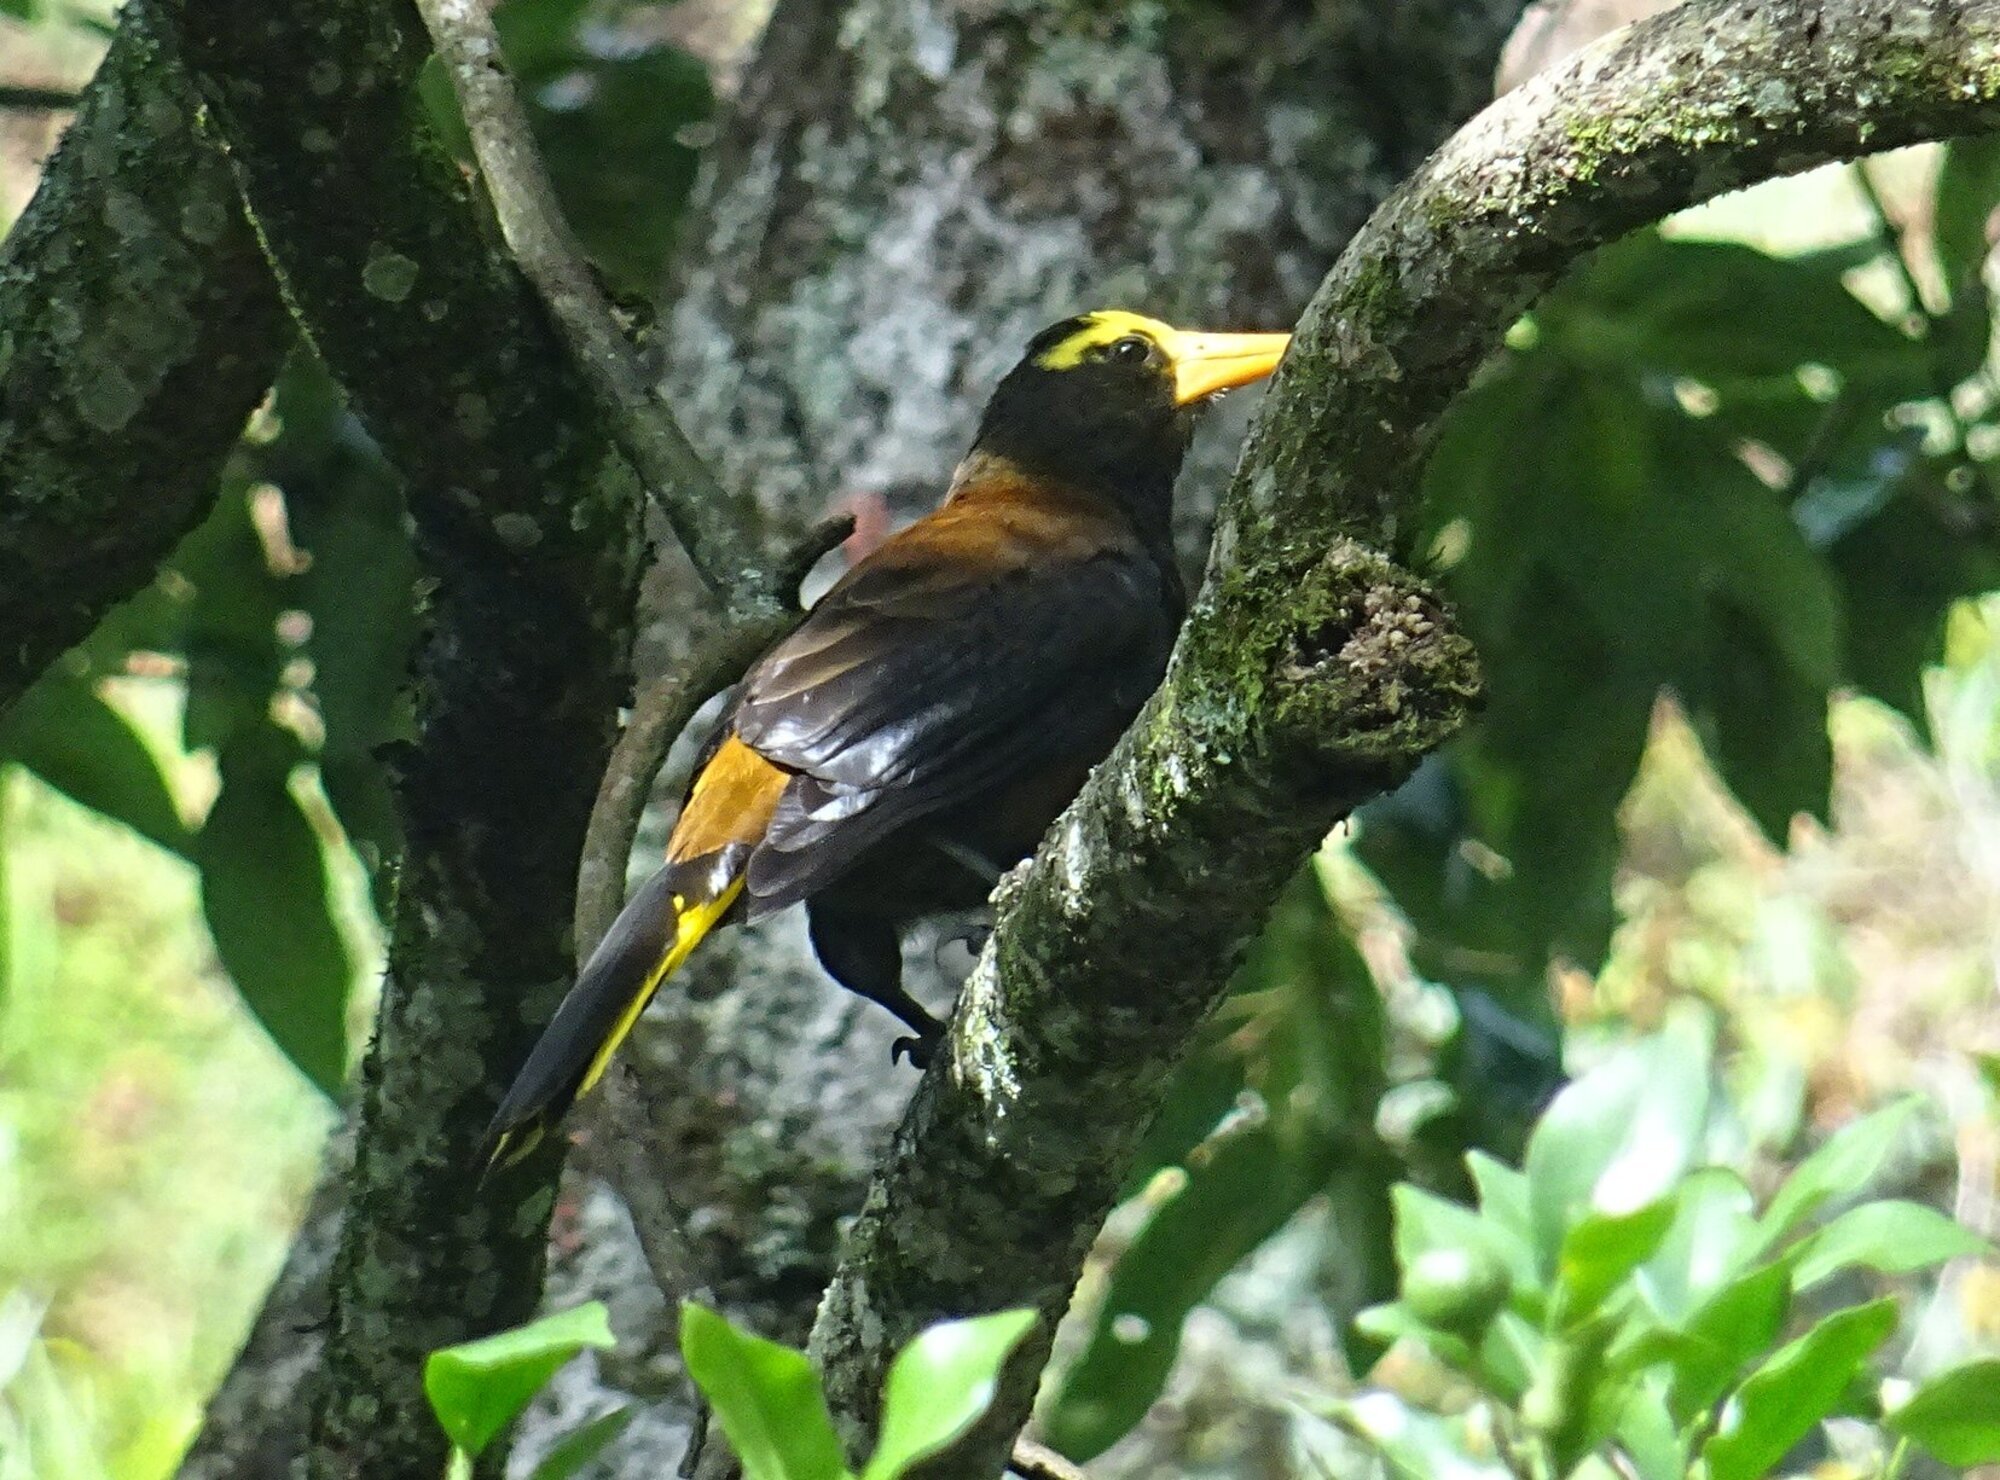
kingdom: Animalia
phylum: Chordata
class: Aves
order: Passeriformes
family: Icteridae
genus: Psarocolius
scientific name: Psarocolius angustifrons
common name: Russet-backed oropendola
